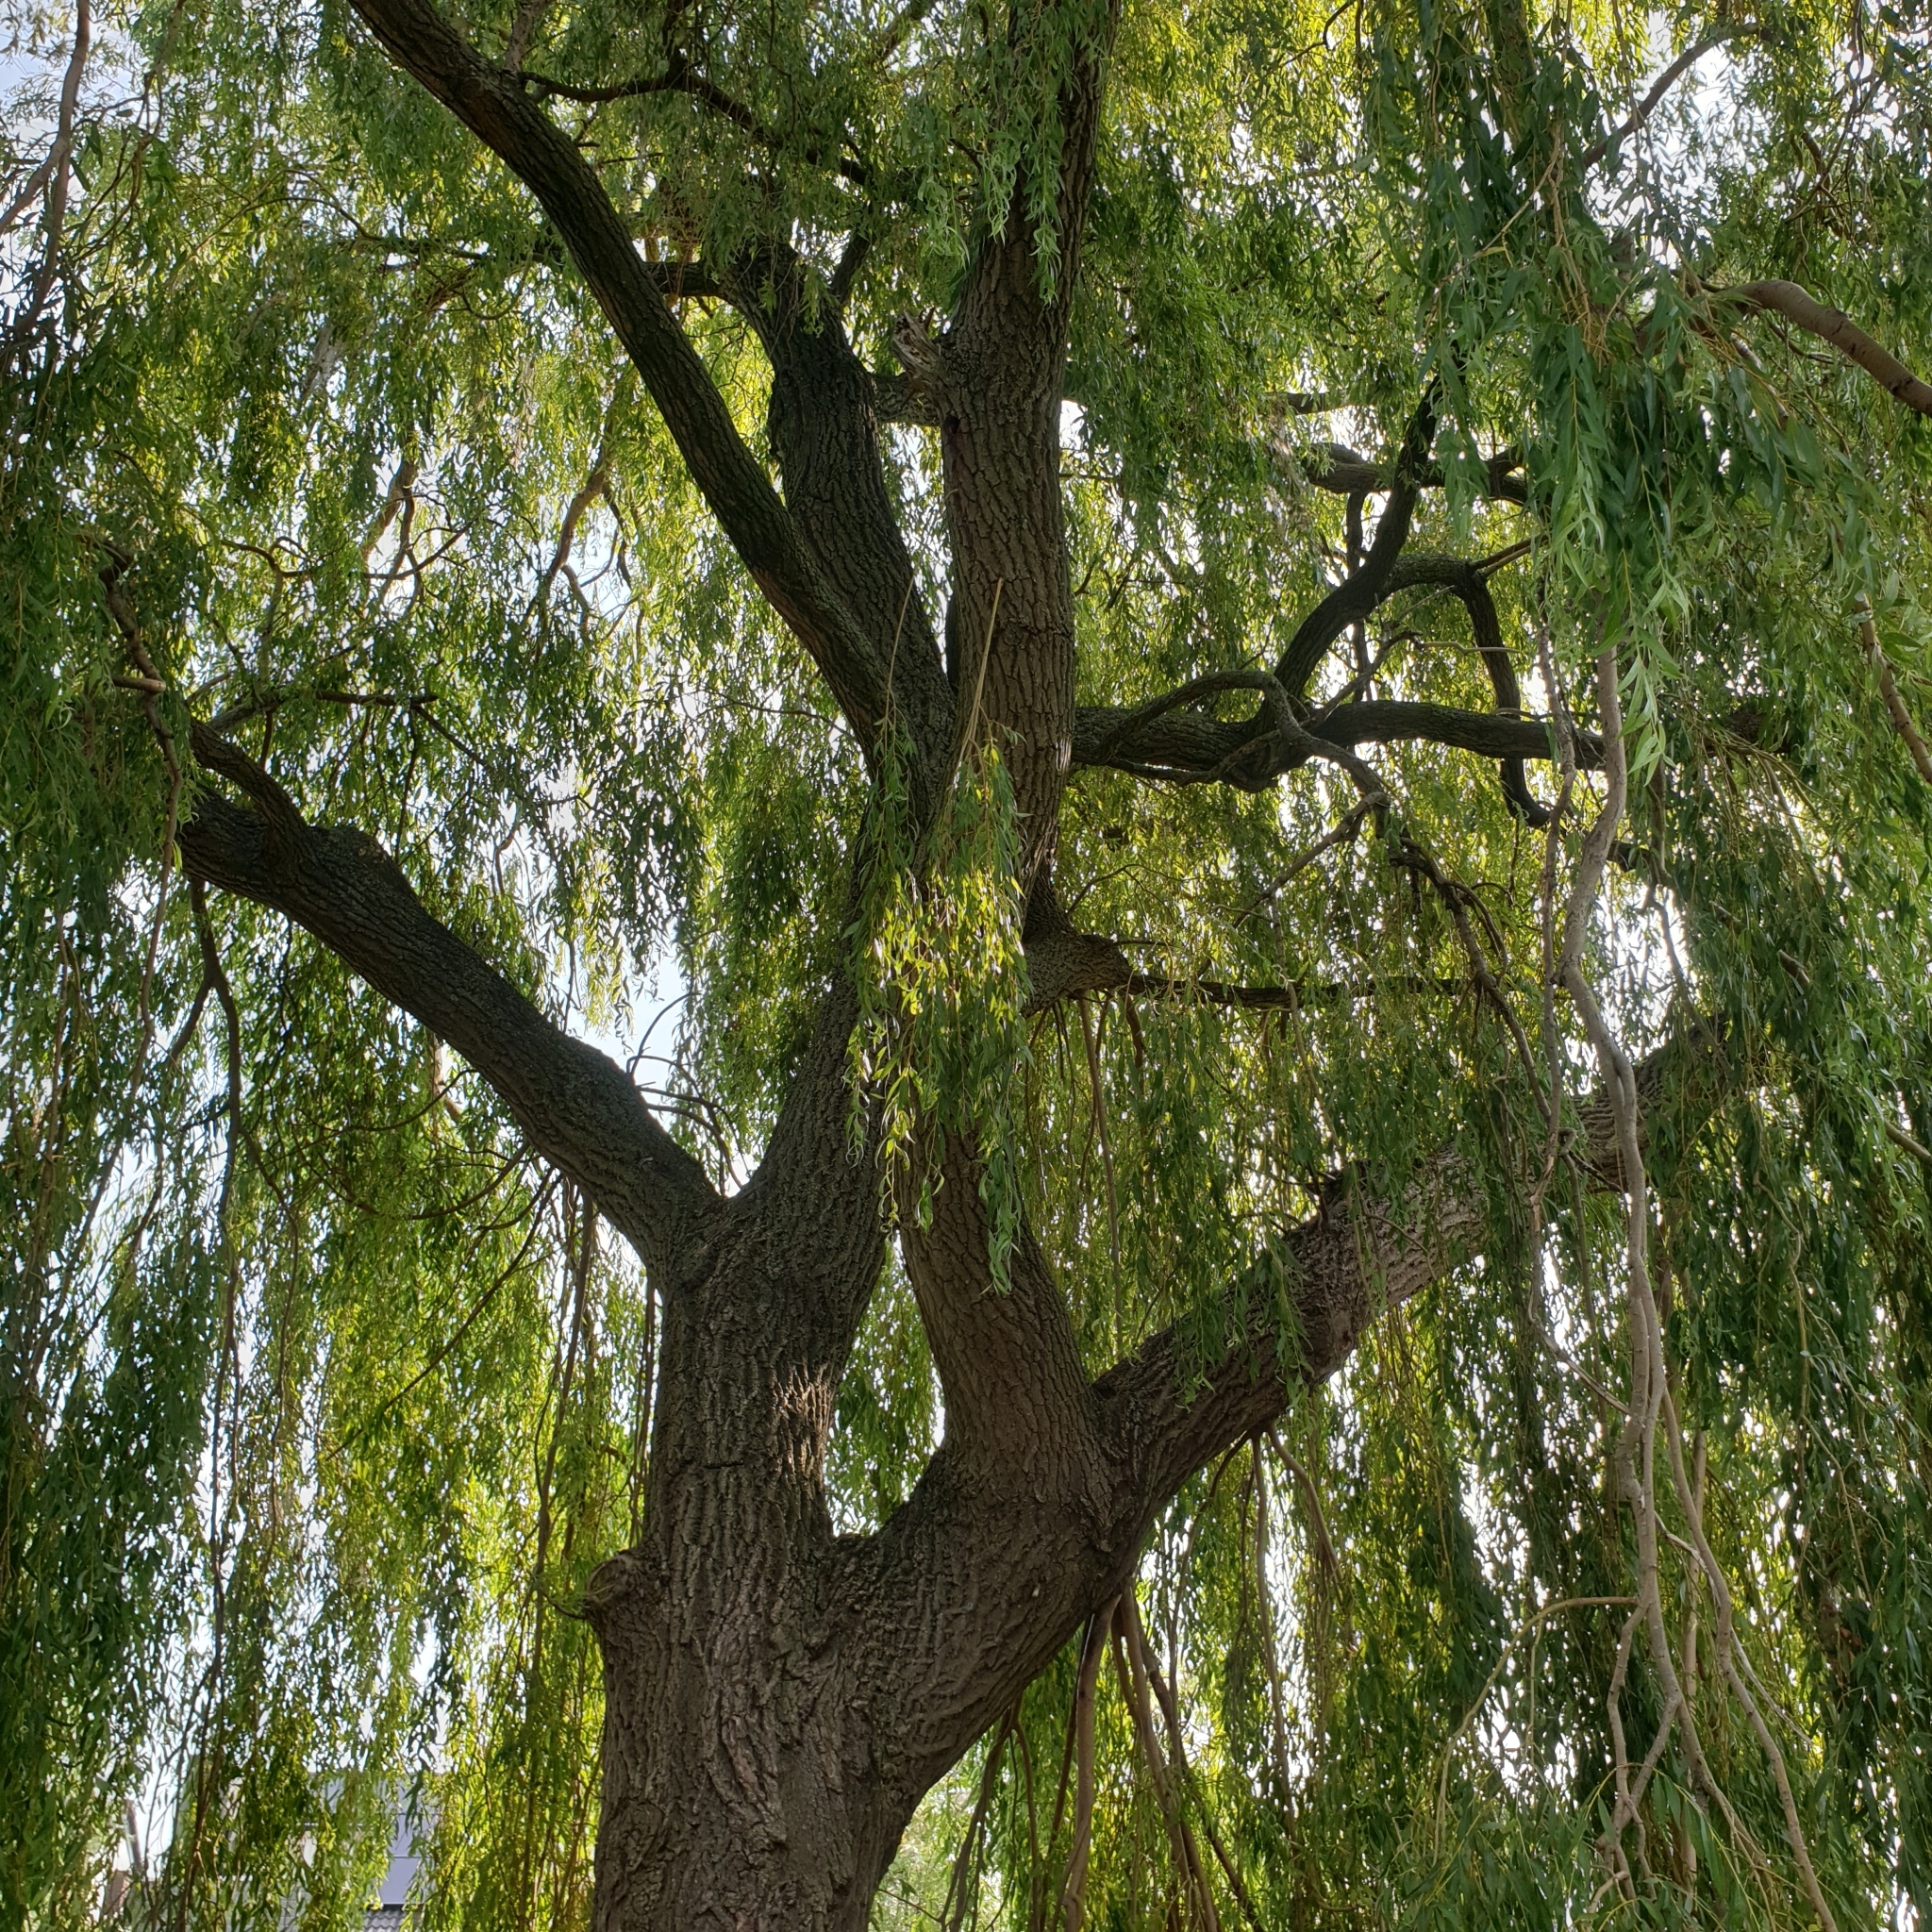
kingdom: Plantae
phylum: Tracheophyta
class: Magnoliopsida
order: Malpighiales
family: Salicaceae
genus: Salix
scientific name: Salix pendulina
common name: Wisconsin weeping willow
